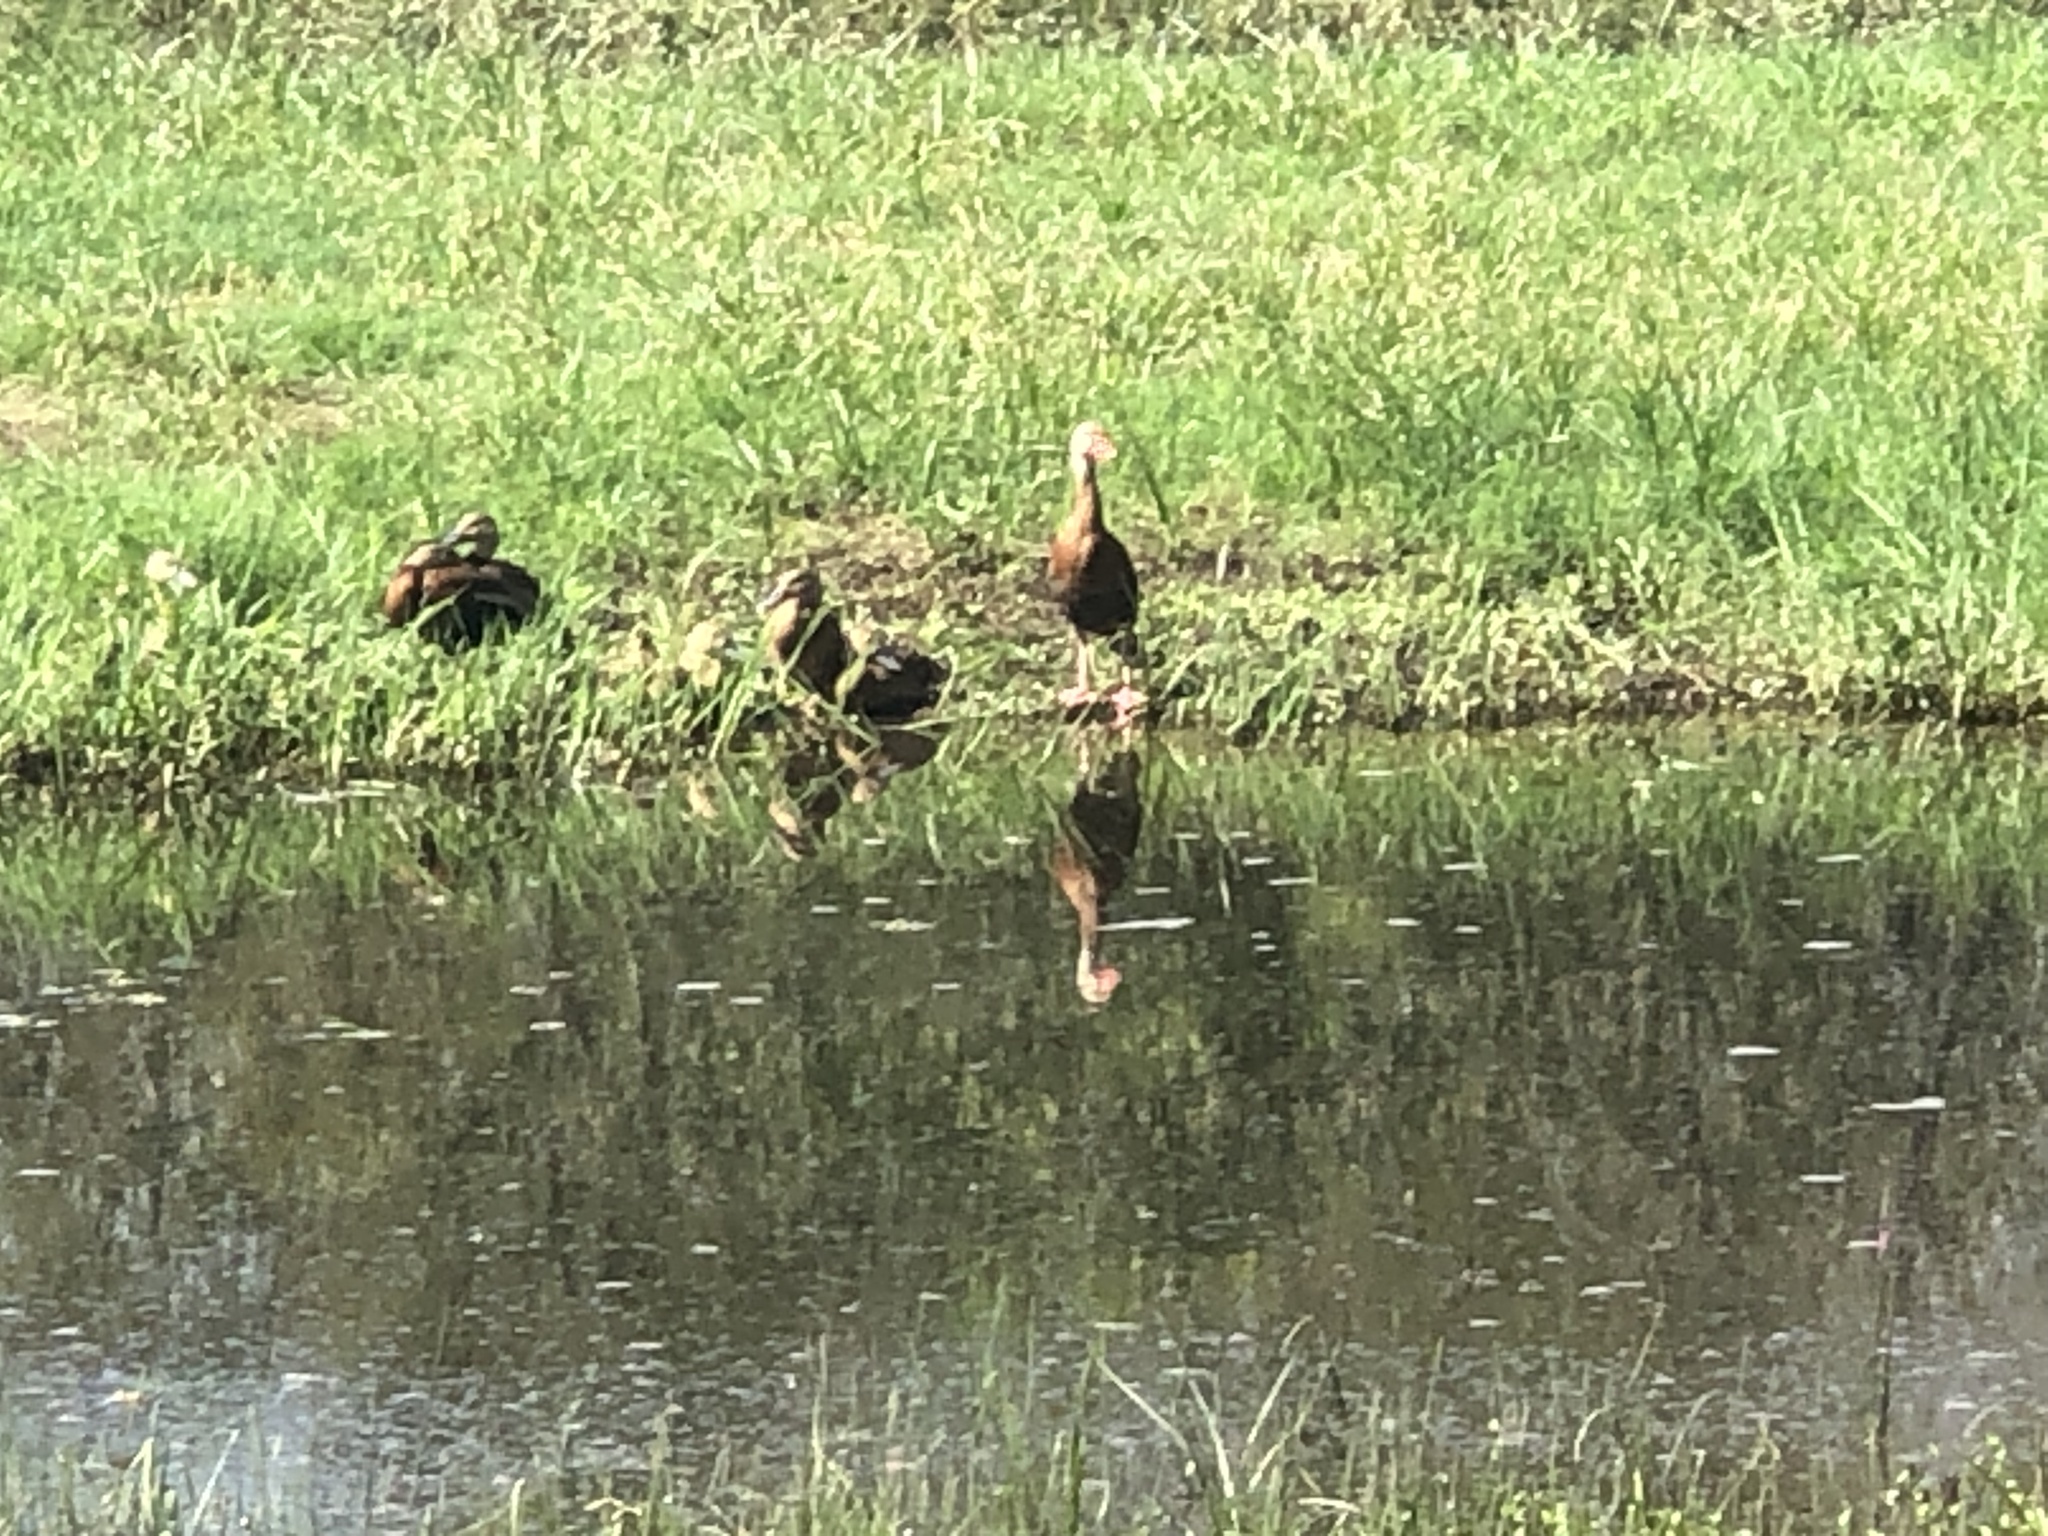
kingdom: Animalia
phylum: Chordata
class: Aves
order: Anseriformes
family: Anatidae
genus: Dendrocygna
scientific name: Dendrocygna autumnalis
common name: Black-bellied whistling duck
